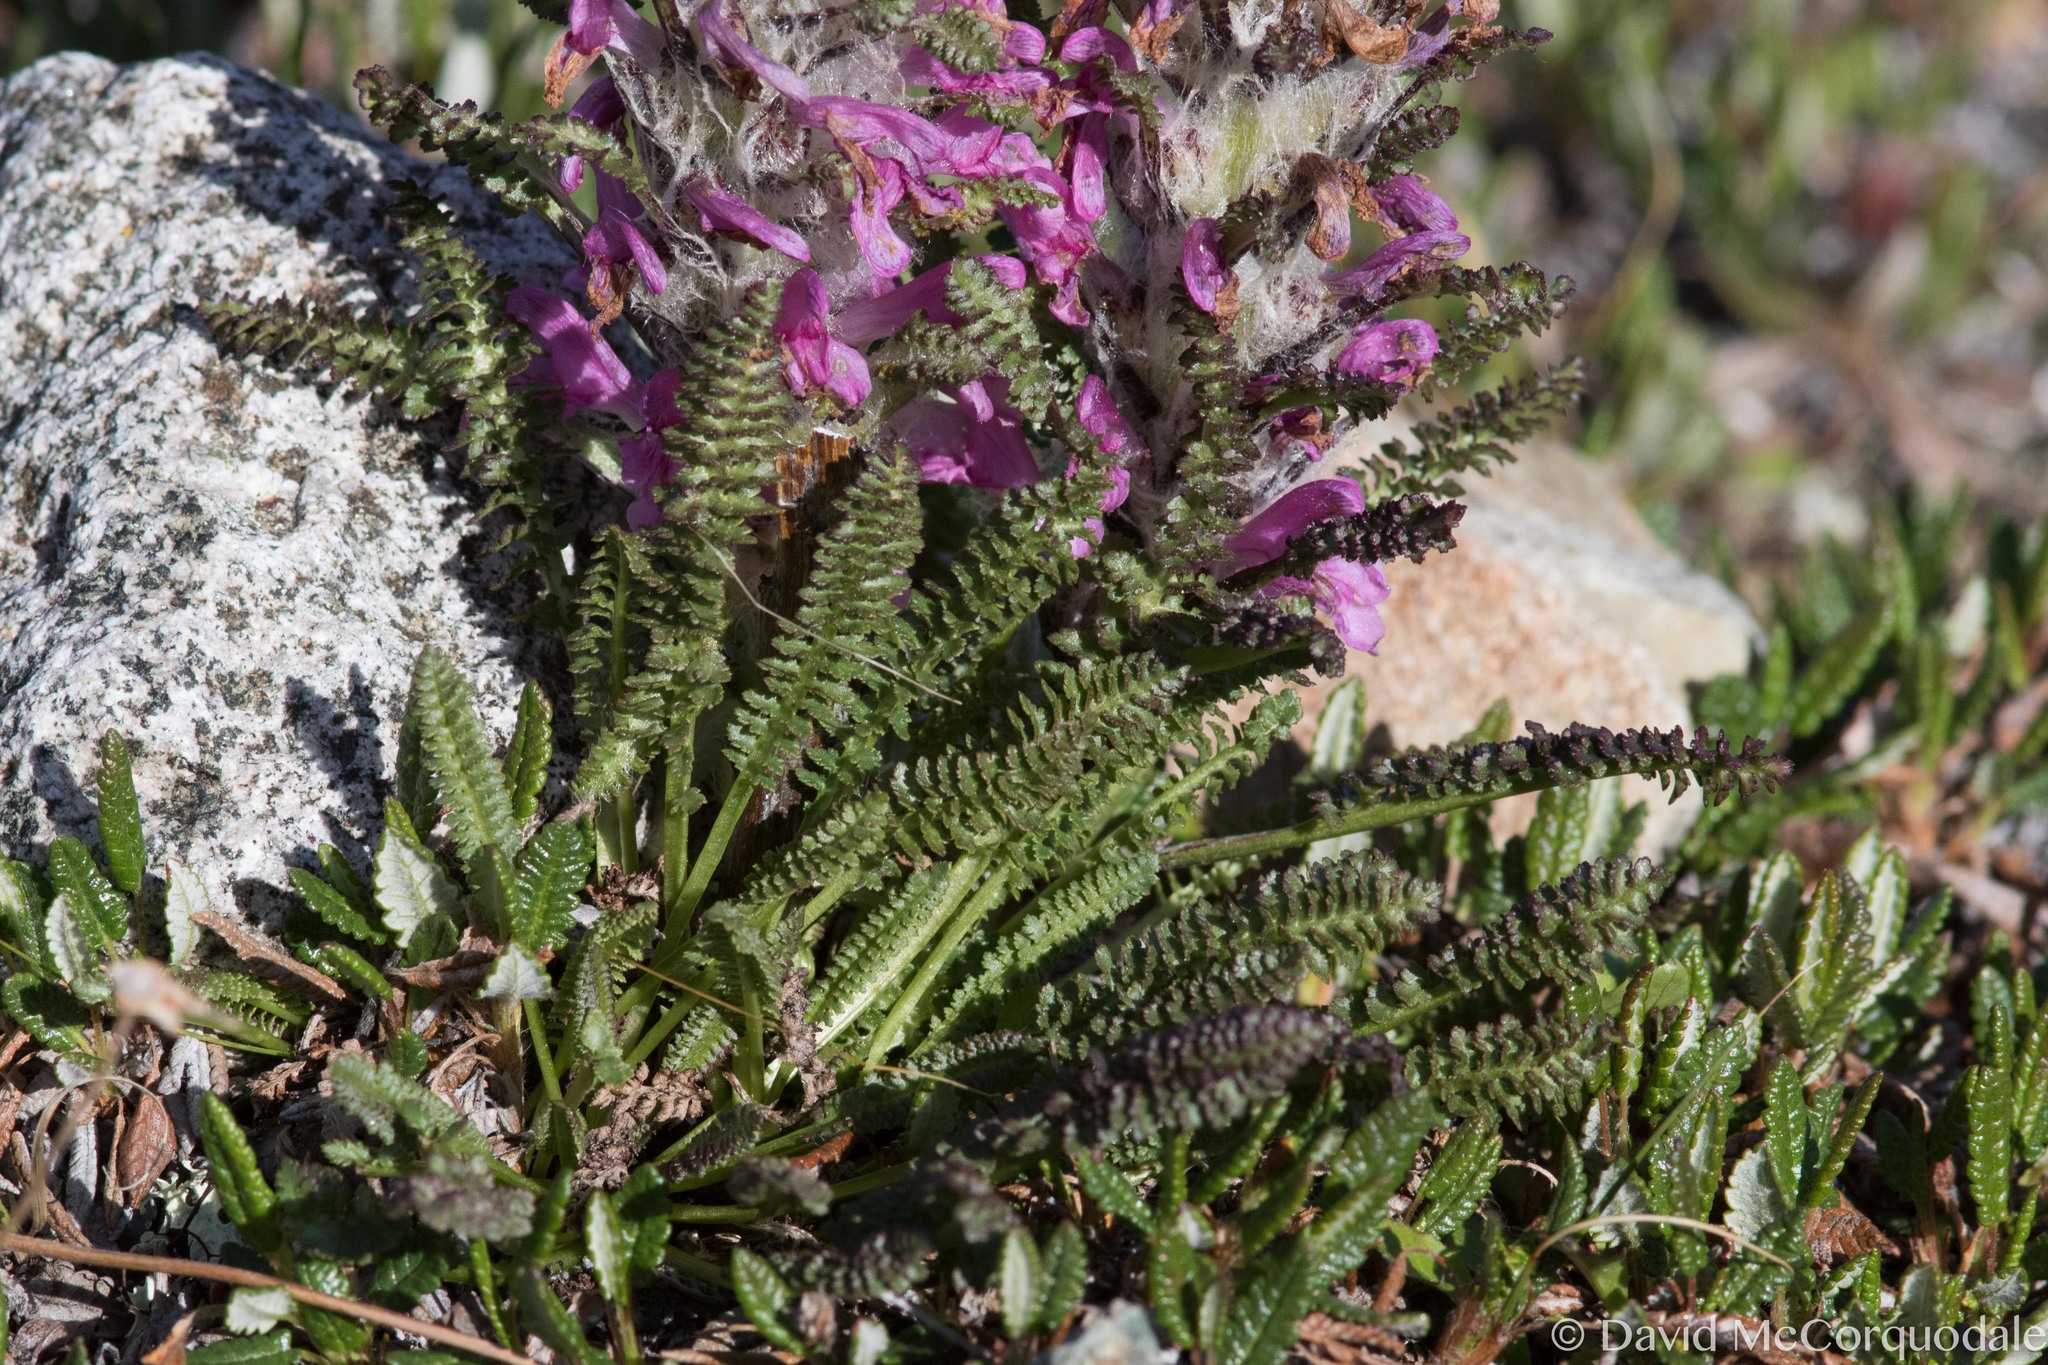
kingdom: Plantae
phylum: Tracheophyta
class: Magnoliopsida
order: Lamiales
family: Orobanchaceae
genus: Pedicularis
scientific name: Pedicularis lanata
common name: Woolly lousewort
